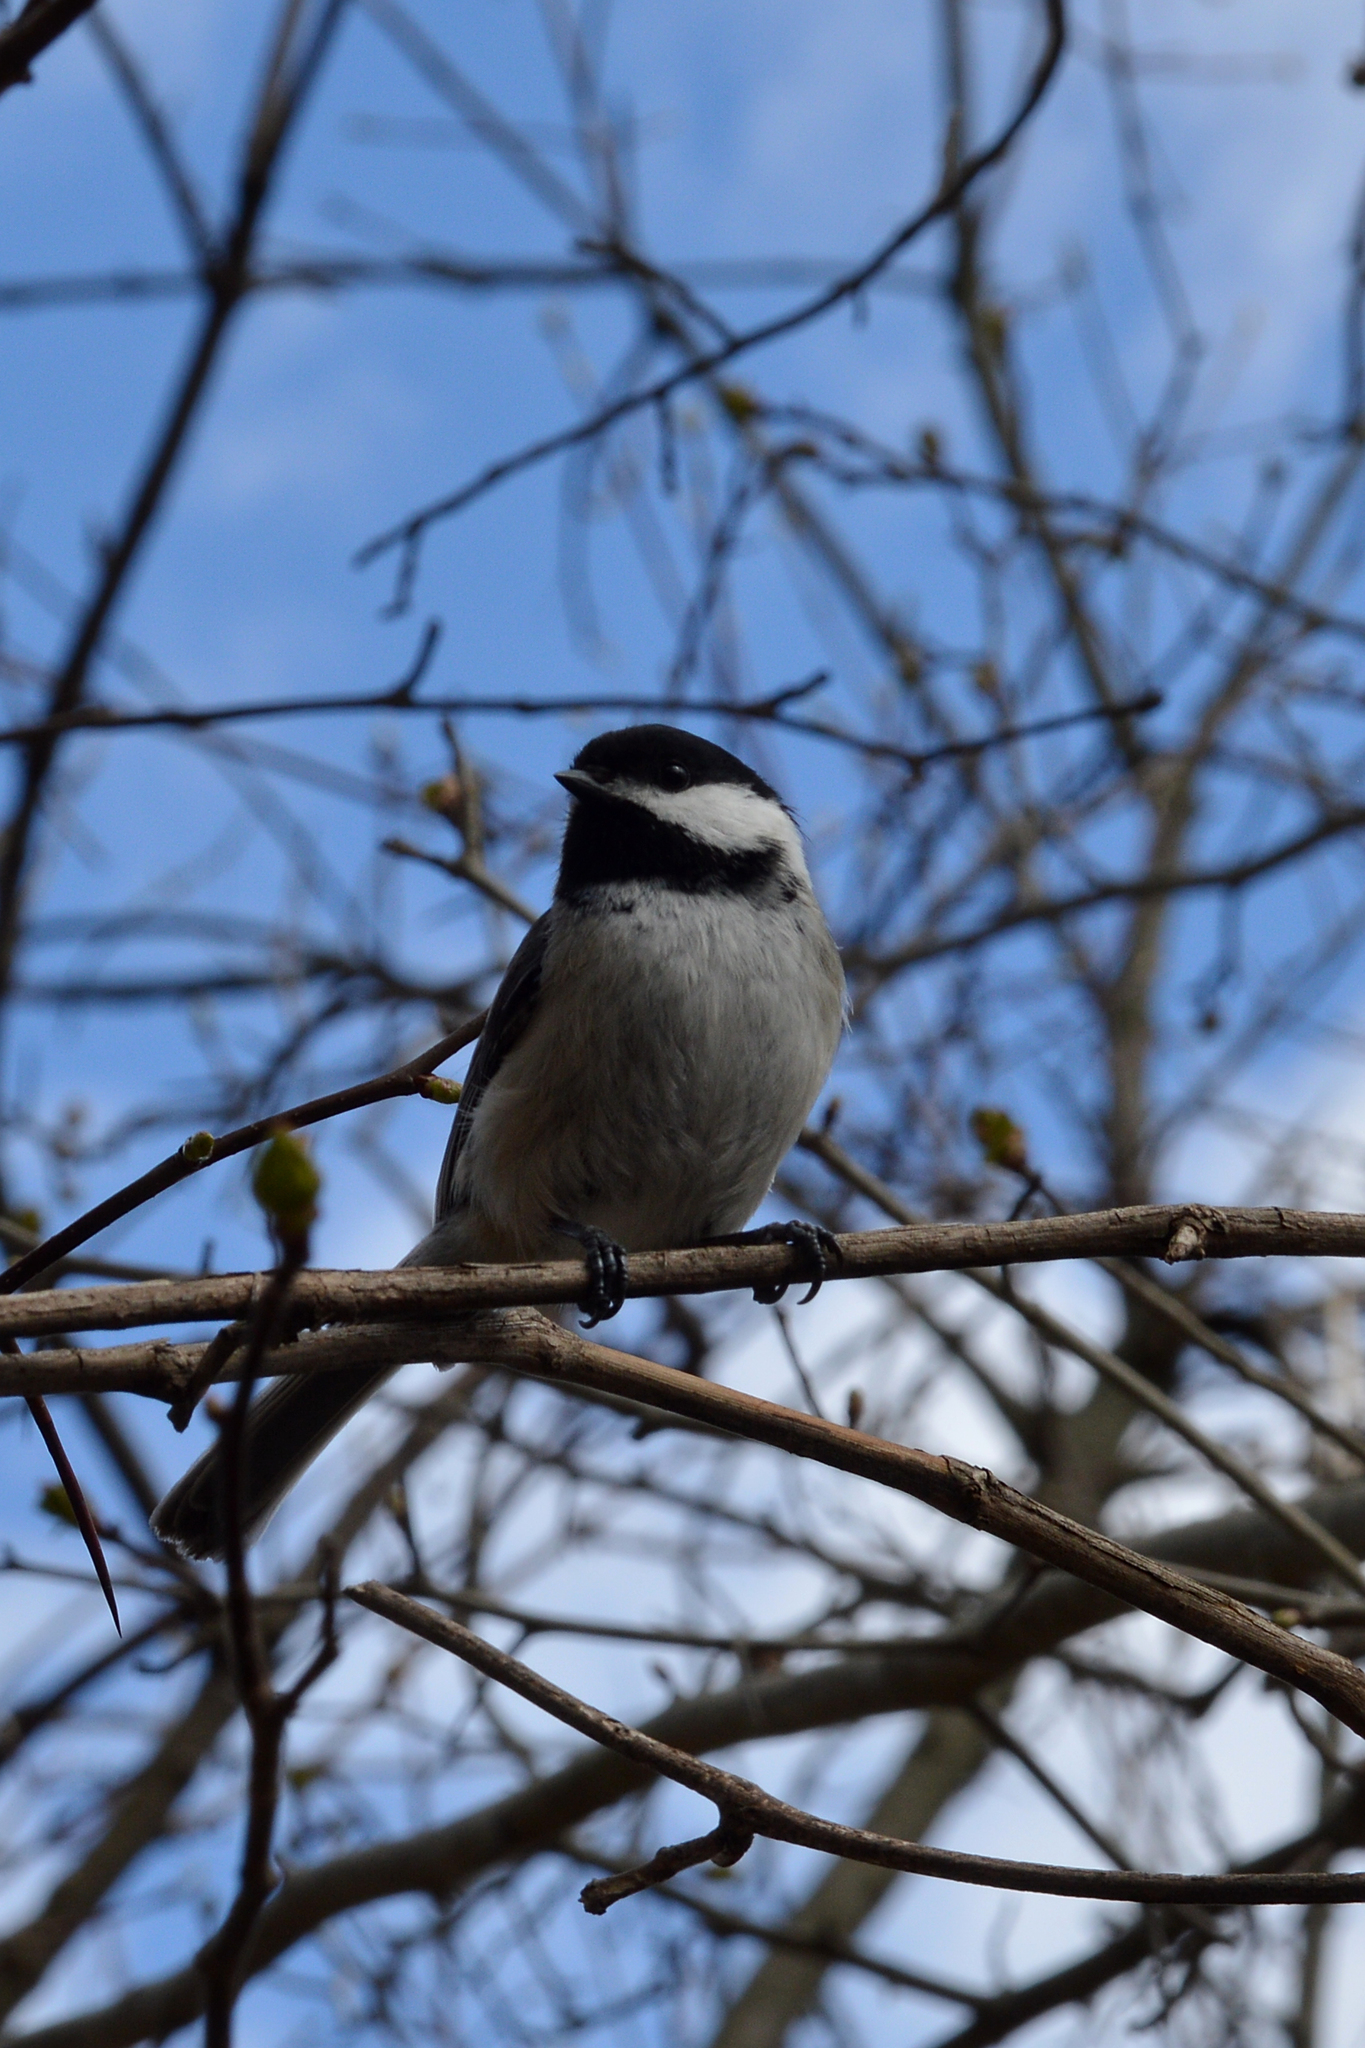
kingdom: Animalia
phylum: Chordata
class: Aves
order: Passeriformes
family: Paridae
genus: Poecile
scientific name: Poecile atricapillus
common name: Black-capped chickadee
